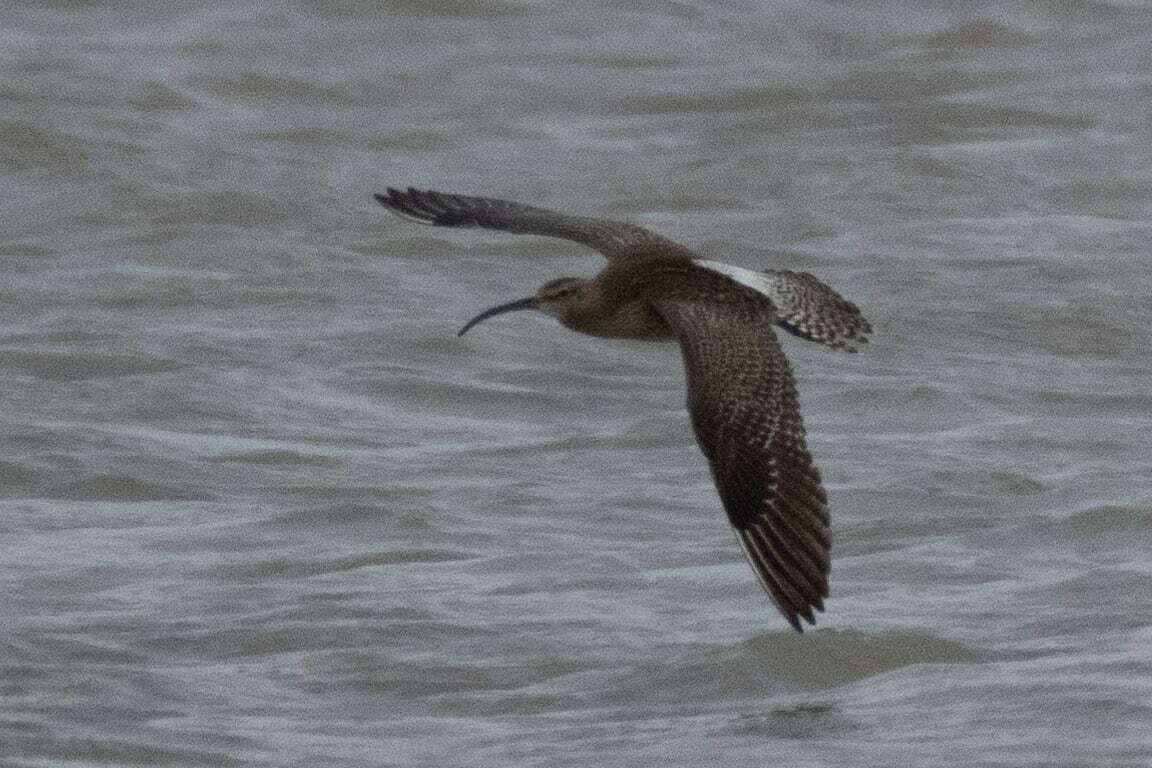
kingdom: Animalia
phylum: Chordata
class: Aves
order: Charadriiformes
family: Scolopacidae
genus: Numenius
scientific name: Numenius phaeopus
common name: Whimbrel
